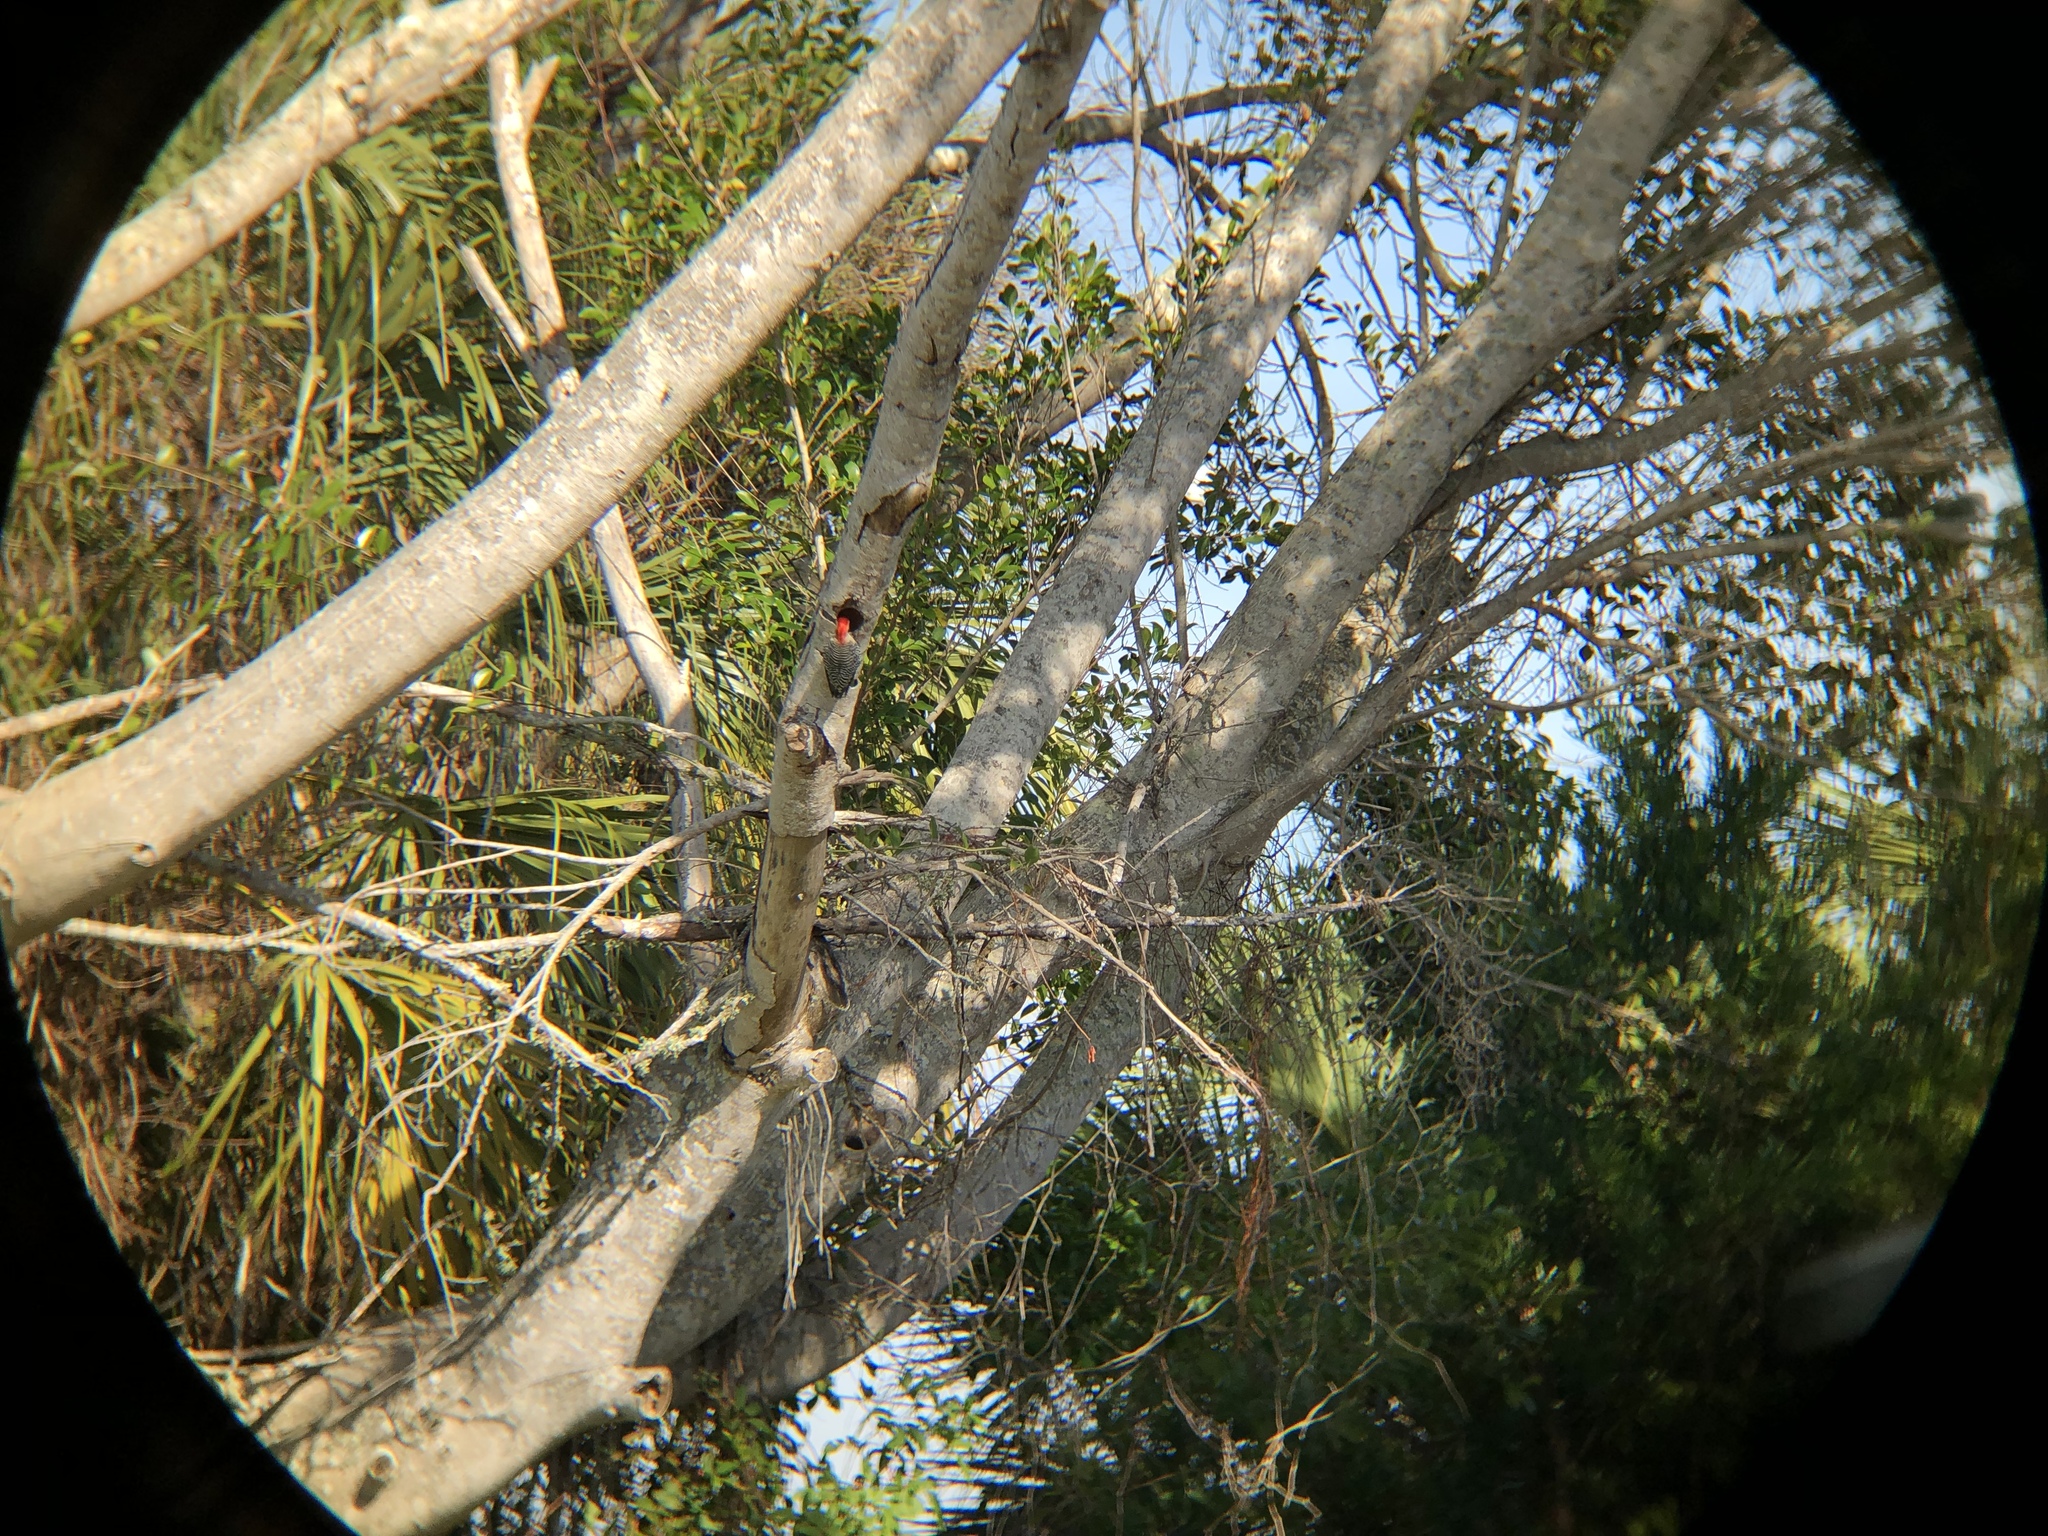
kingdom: Animalia
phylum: Chordata
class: Aves
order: Piciformes
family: Picidae
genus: Melanerpes
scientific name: Melanerpes carolinus
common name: Red-bellied woodpecker
